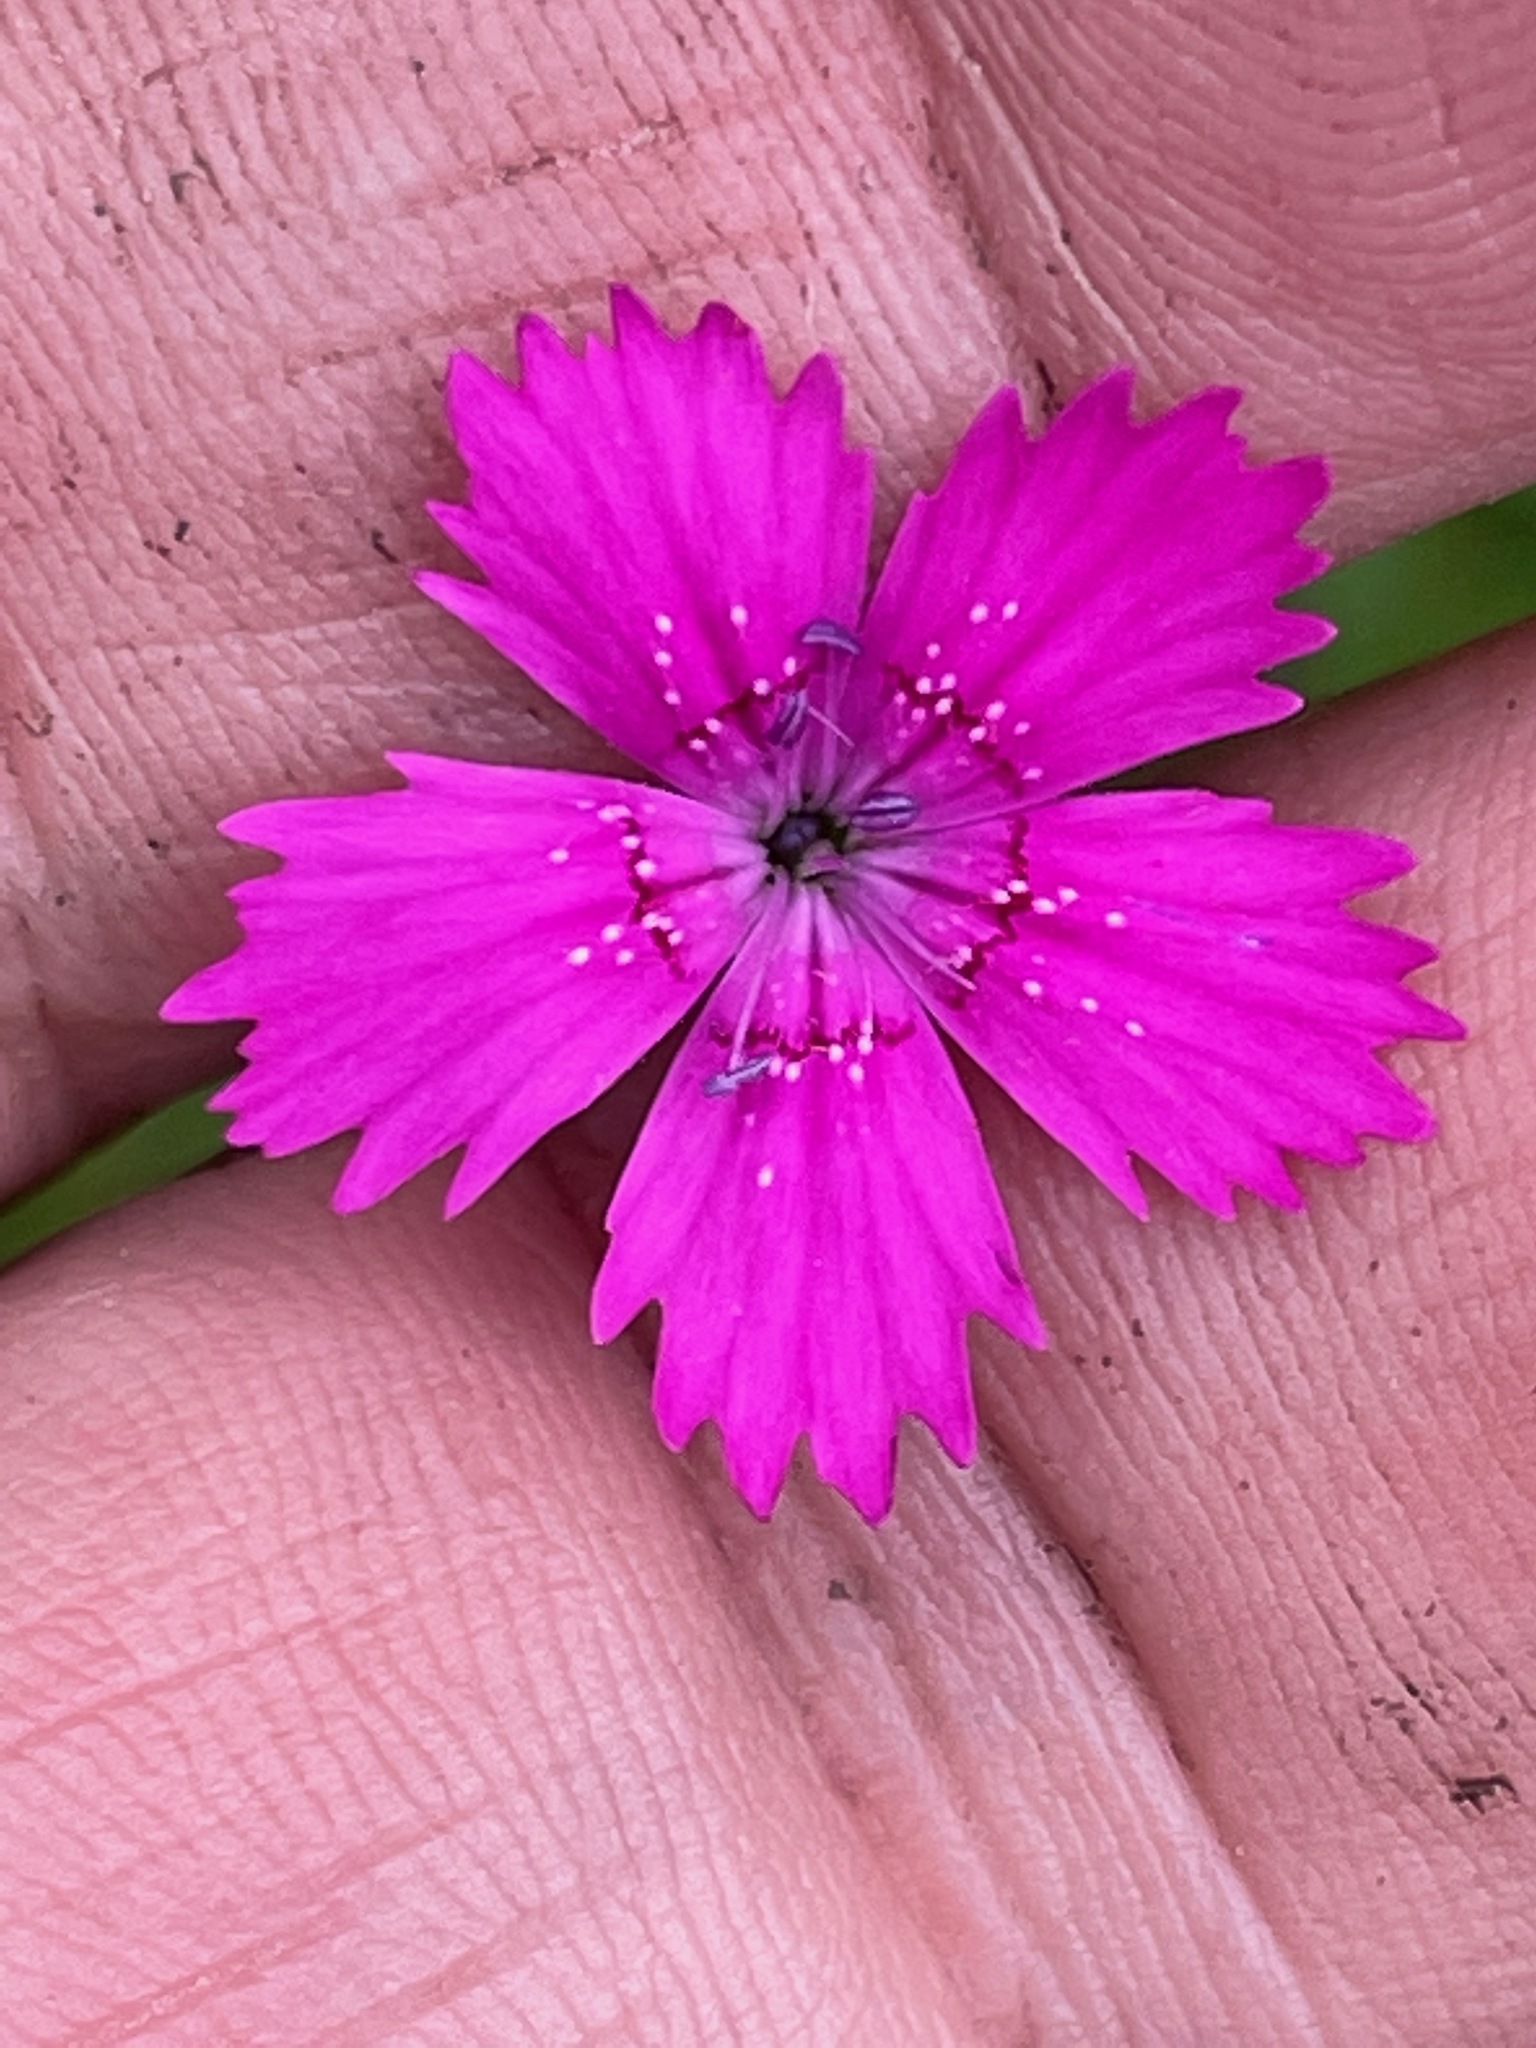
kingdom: Plantae
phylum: Tracheophyta
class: Magnoliopsida
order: Caryophyllales
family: Caryophyllaceae
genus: Dianthus
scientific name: Dianthus deltoides
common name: Maiden pink
